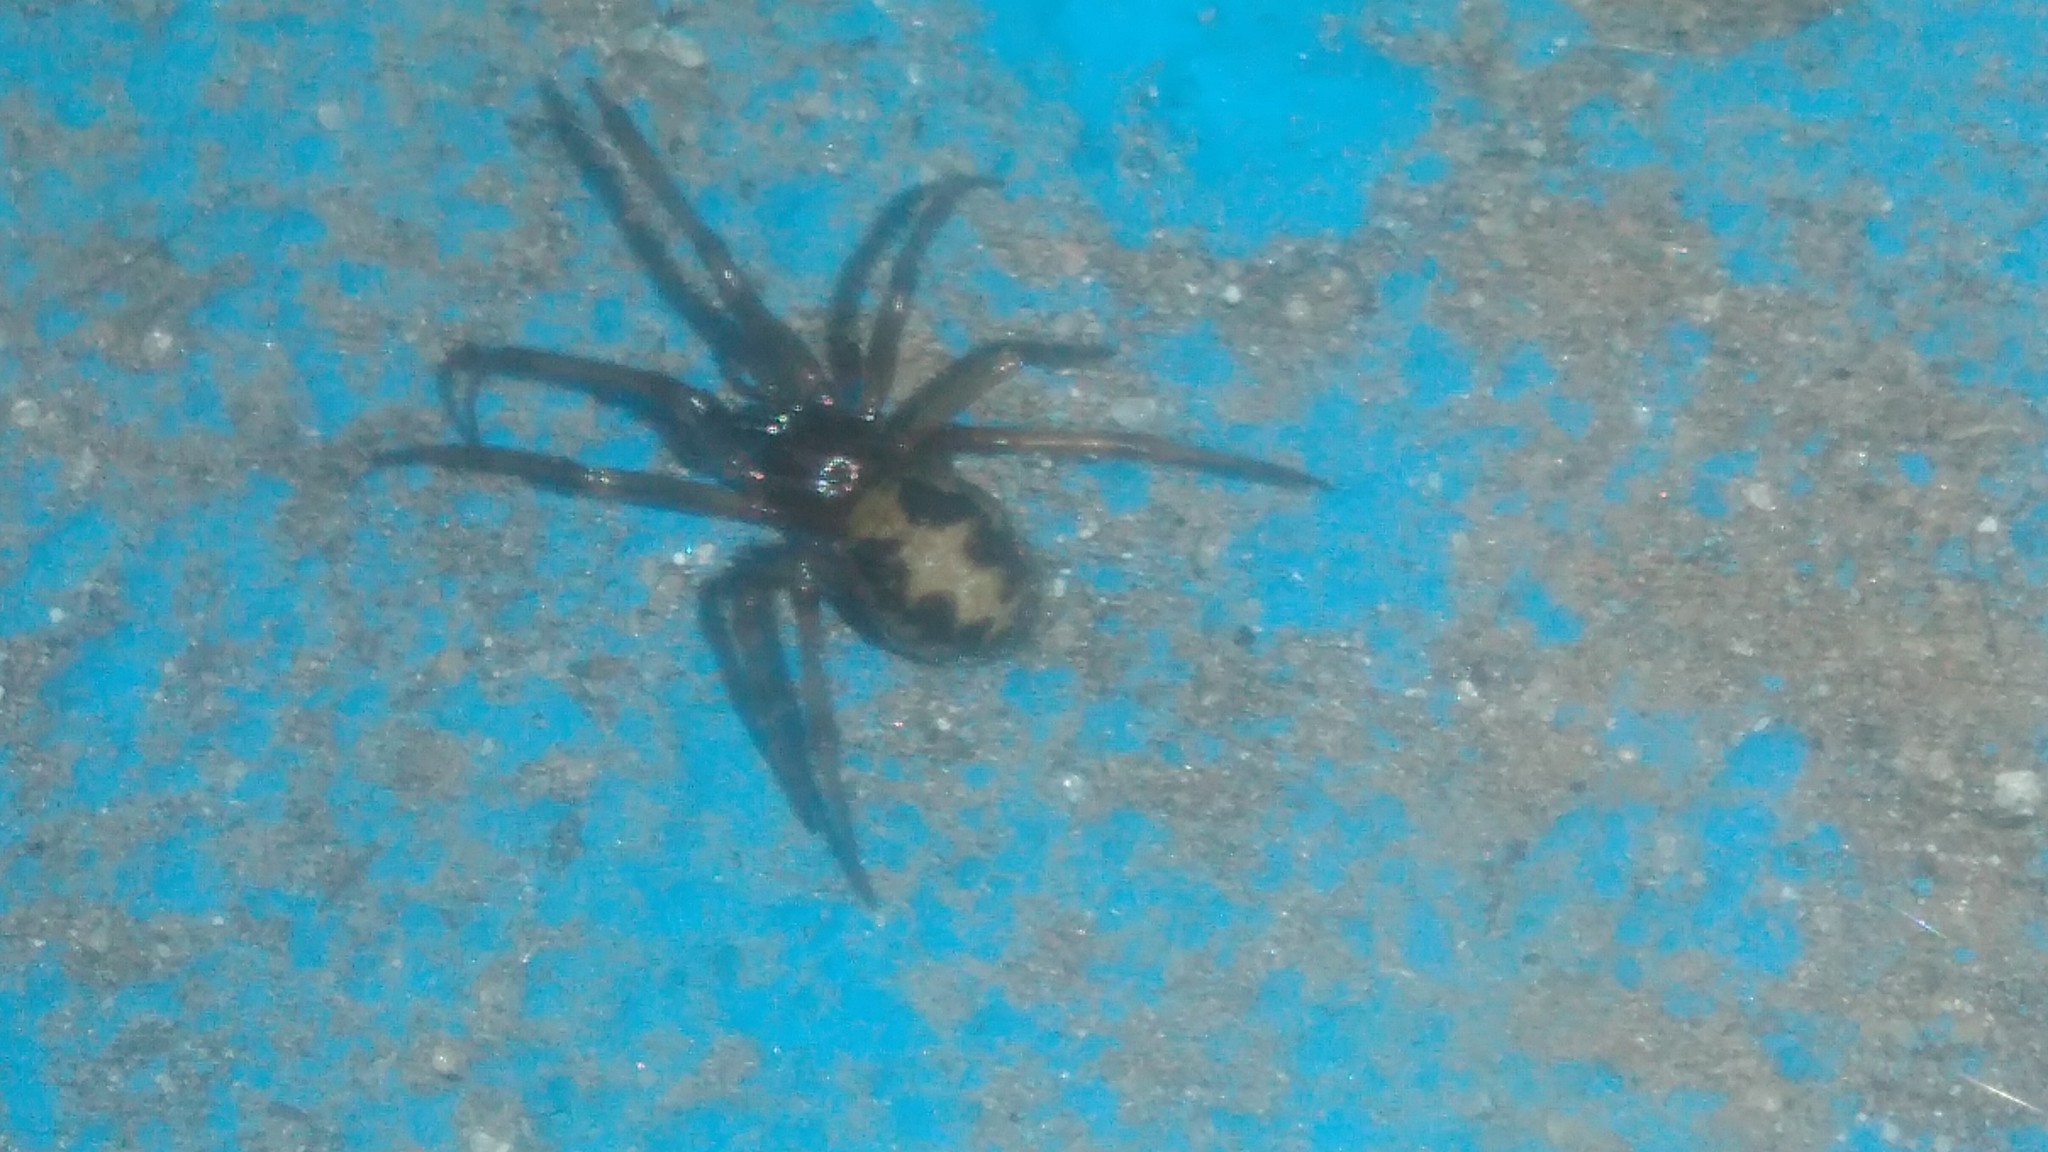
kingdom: Animalia
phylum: Arthropoda
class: Arachnida
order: Araneae
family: Theridiidae
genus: Steatoda
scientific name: Steatoda triangulosa
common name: Triangulate bud spider
